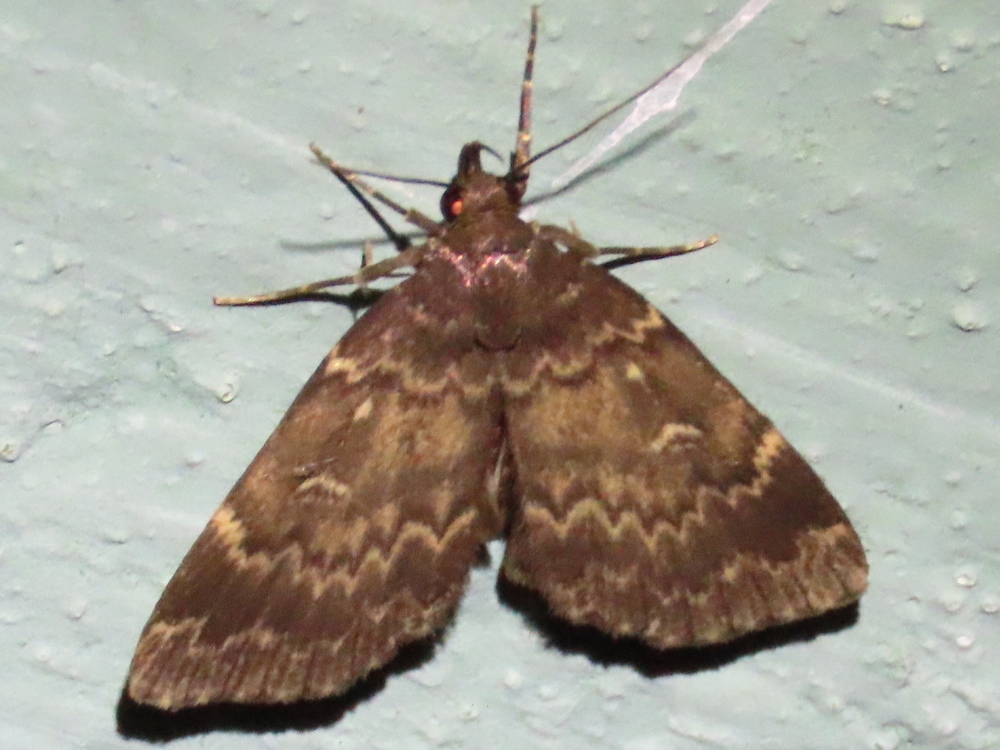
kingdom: Animalia
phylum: Arthropoda
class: Insecta
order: Lepidoptera
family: Erebidae
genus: Idia
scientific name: Idia lubricalis
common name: Twin-striped tabby
